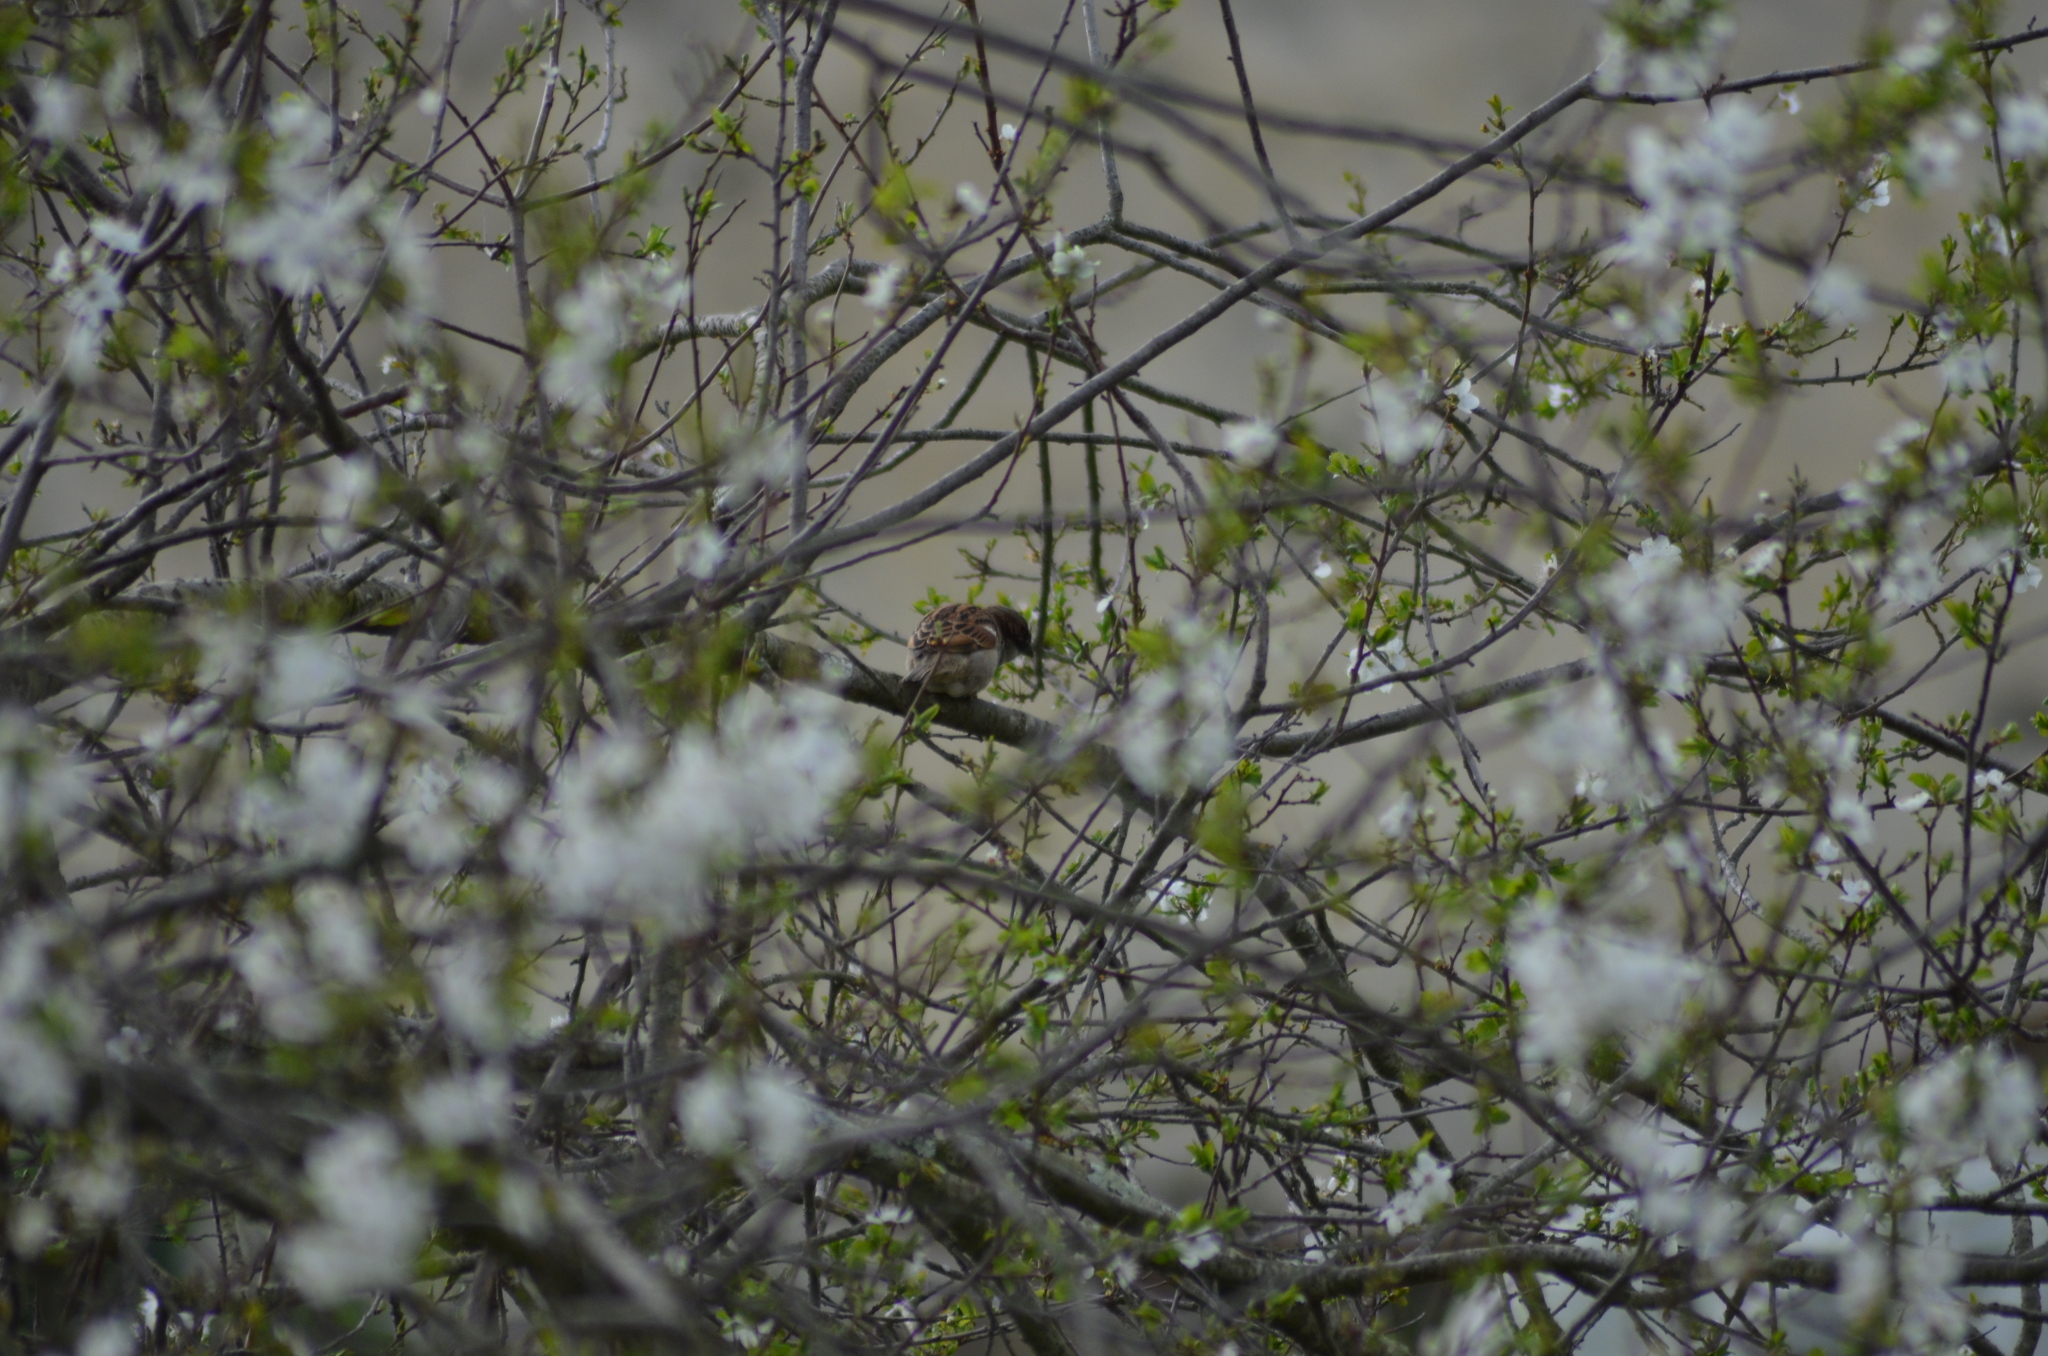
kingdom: Animalia
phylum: Chordata
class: Aves
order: Passeriformes
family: Passeridae
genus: Passer
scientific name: Passer domesticus
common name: House sparrow
